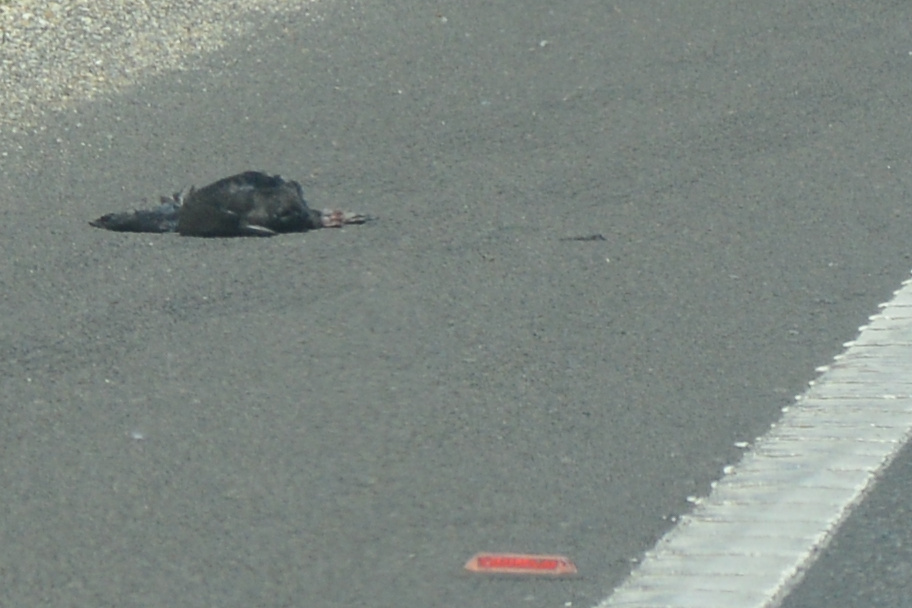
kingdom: Animalia
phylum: Chordata
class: Aves
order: Passeriformes
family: Corvidae
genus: Corvus
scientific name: Corvus tasmanicus
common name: Forest raven
